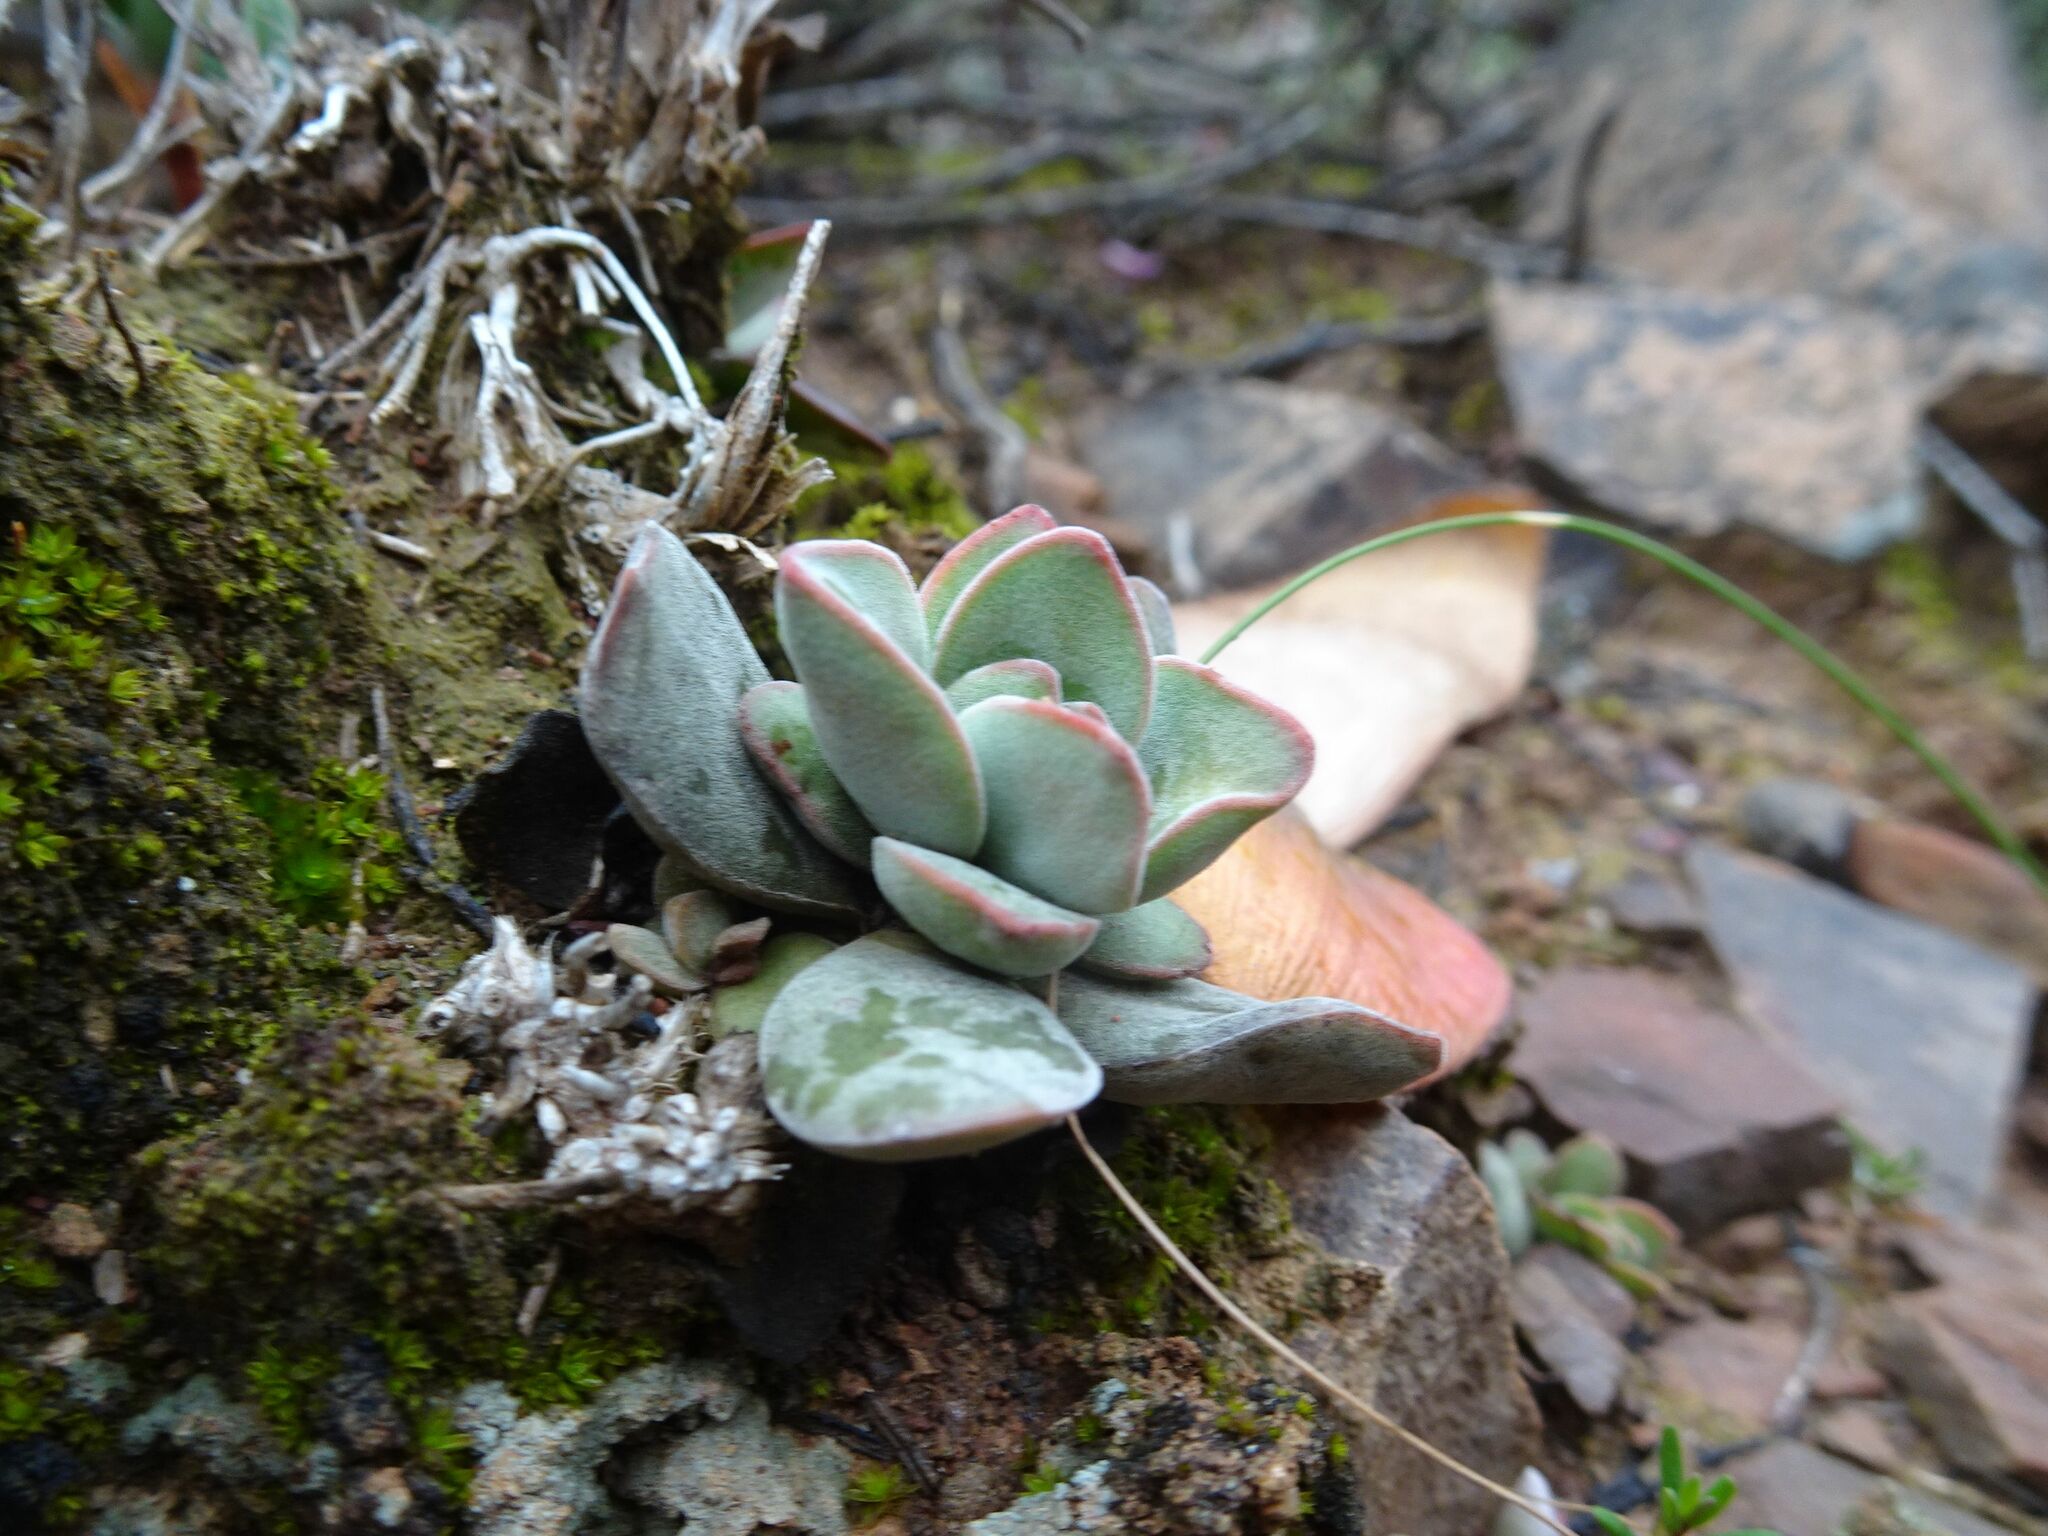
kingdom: Plantae
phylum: Tracheophyta
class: Magnoliopsida
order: Saxifragales
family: Crassulaceae
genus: Crassula
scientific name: Crassula cotyledonis
